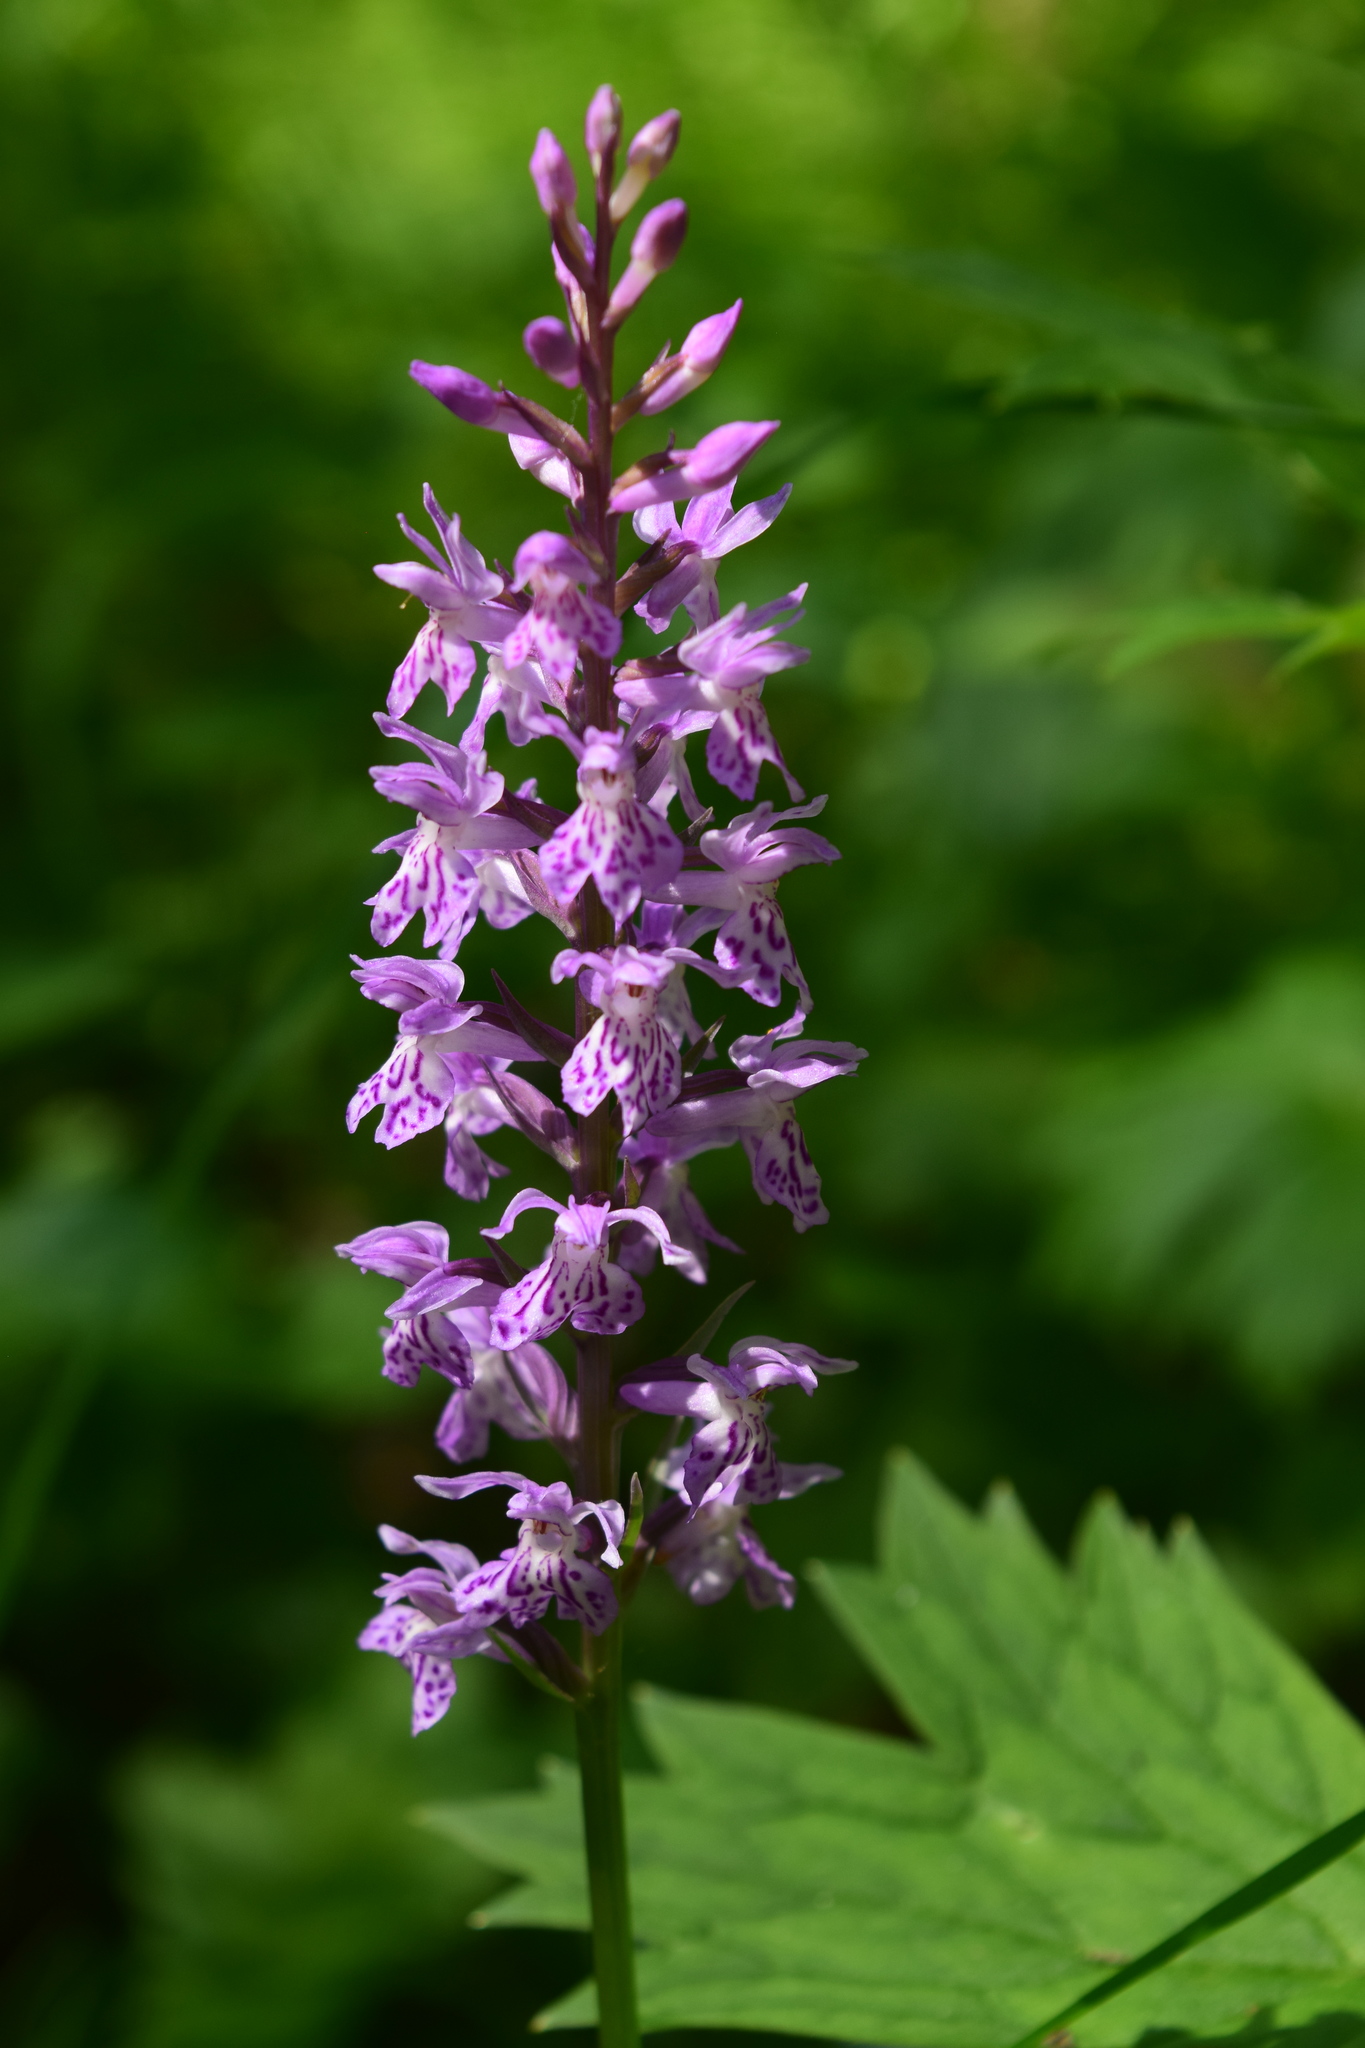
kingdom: Plantae
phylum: Tracheophyta
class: Liliopsida
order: Asparagales
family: Orchidaceae
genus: Dactylorhiza
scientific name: Dactylorhiza maculata
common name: Heath spotted-orchid
